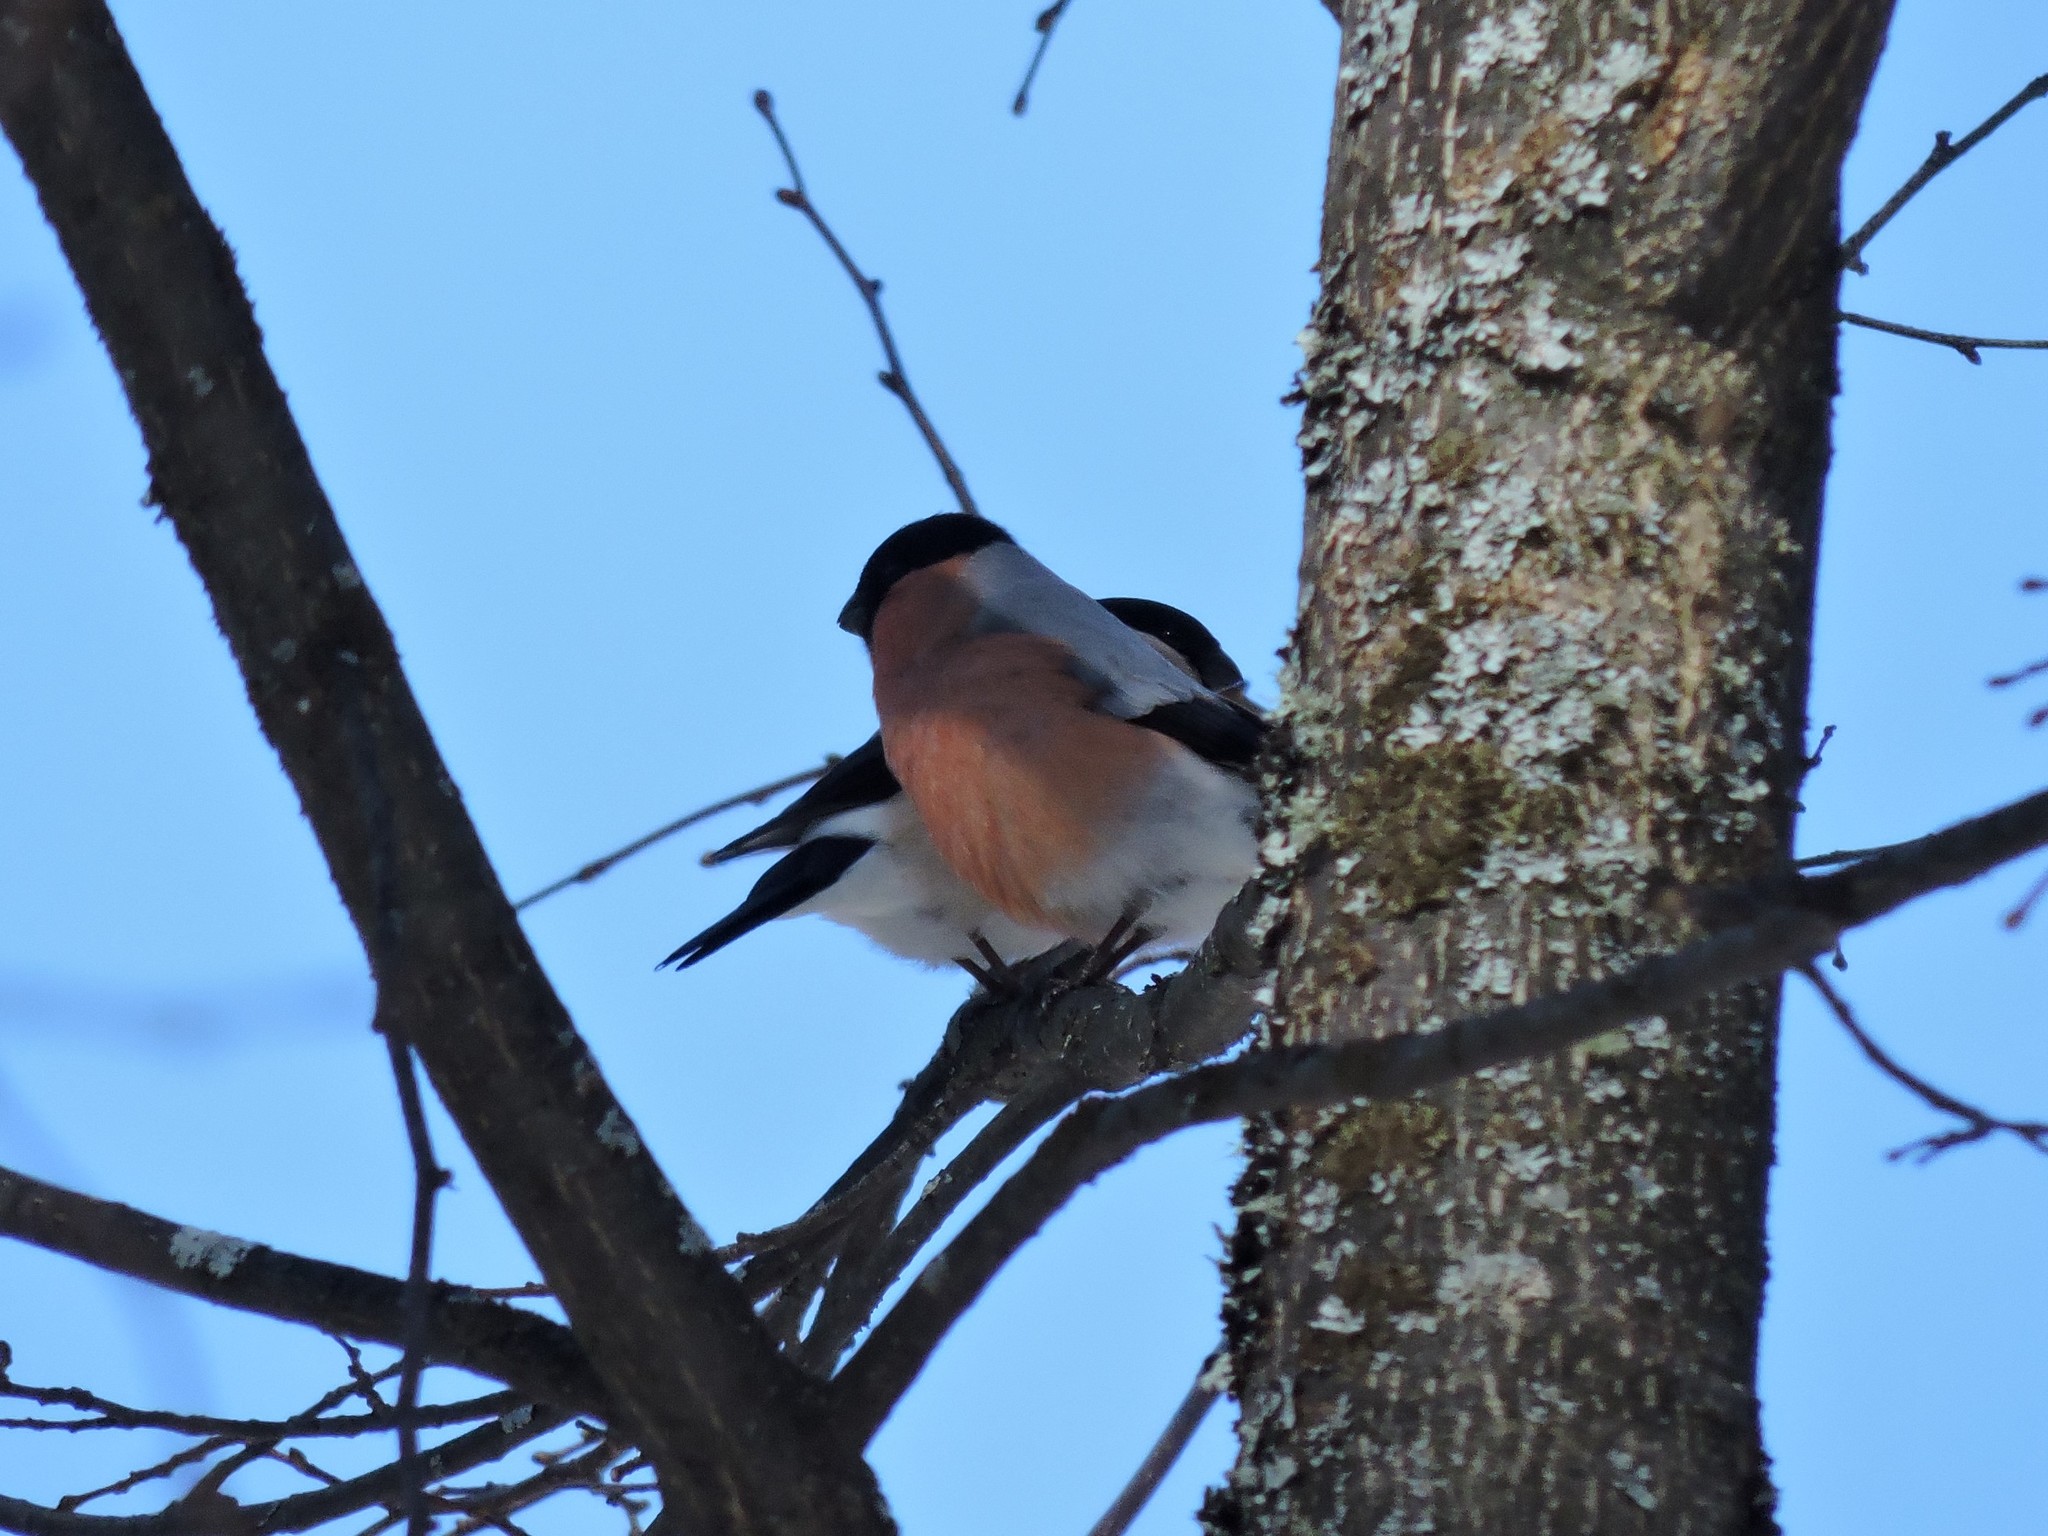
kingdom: Animalia
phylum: Chordata
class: Aves
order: Passeriformes
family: Fringillidae
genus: Pyrrhula
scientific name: Pyrrhula pyrrhula
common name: Eurasian bullfinch
